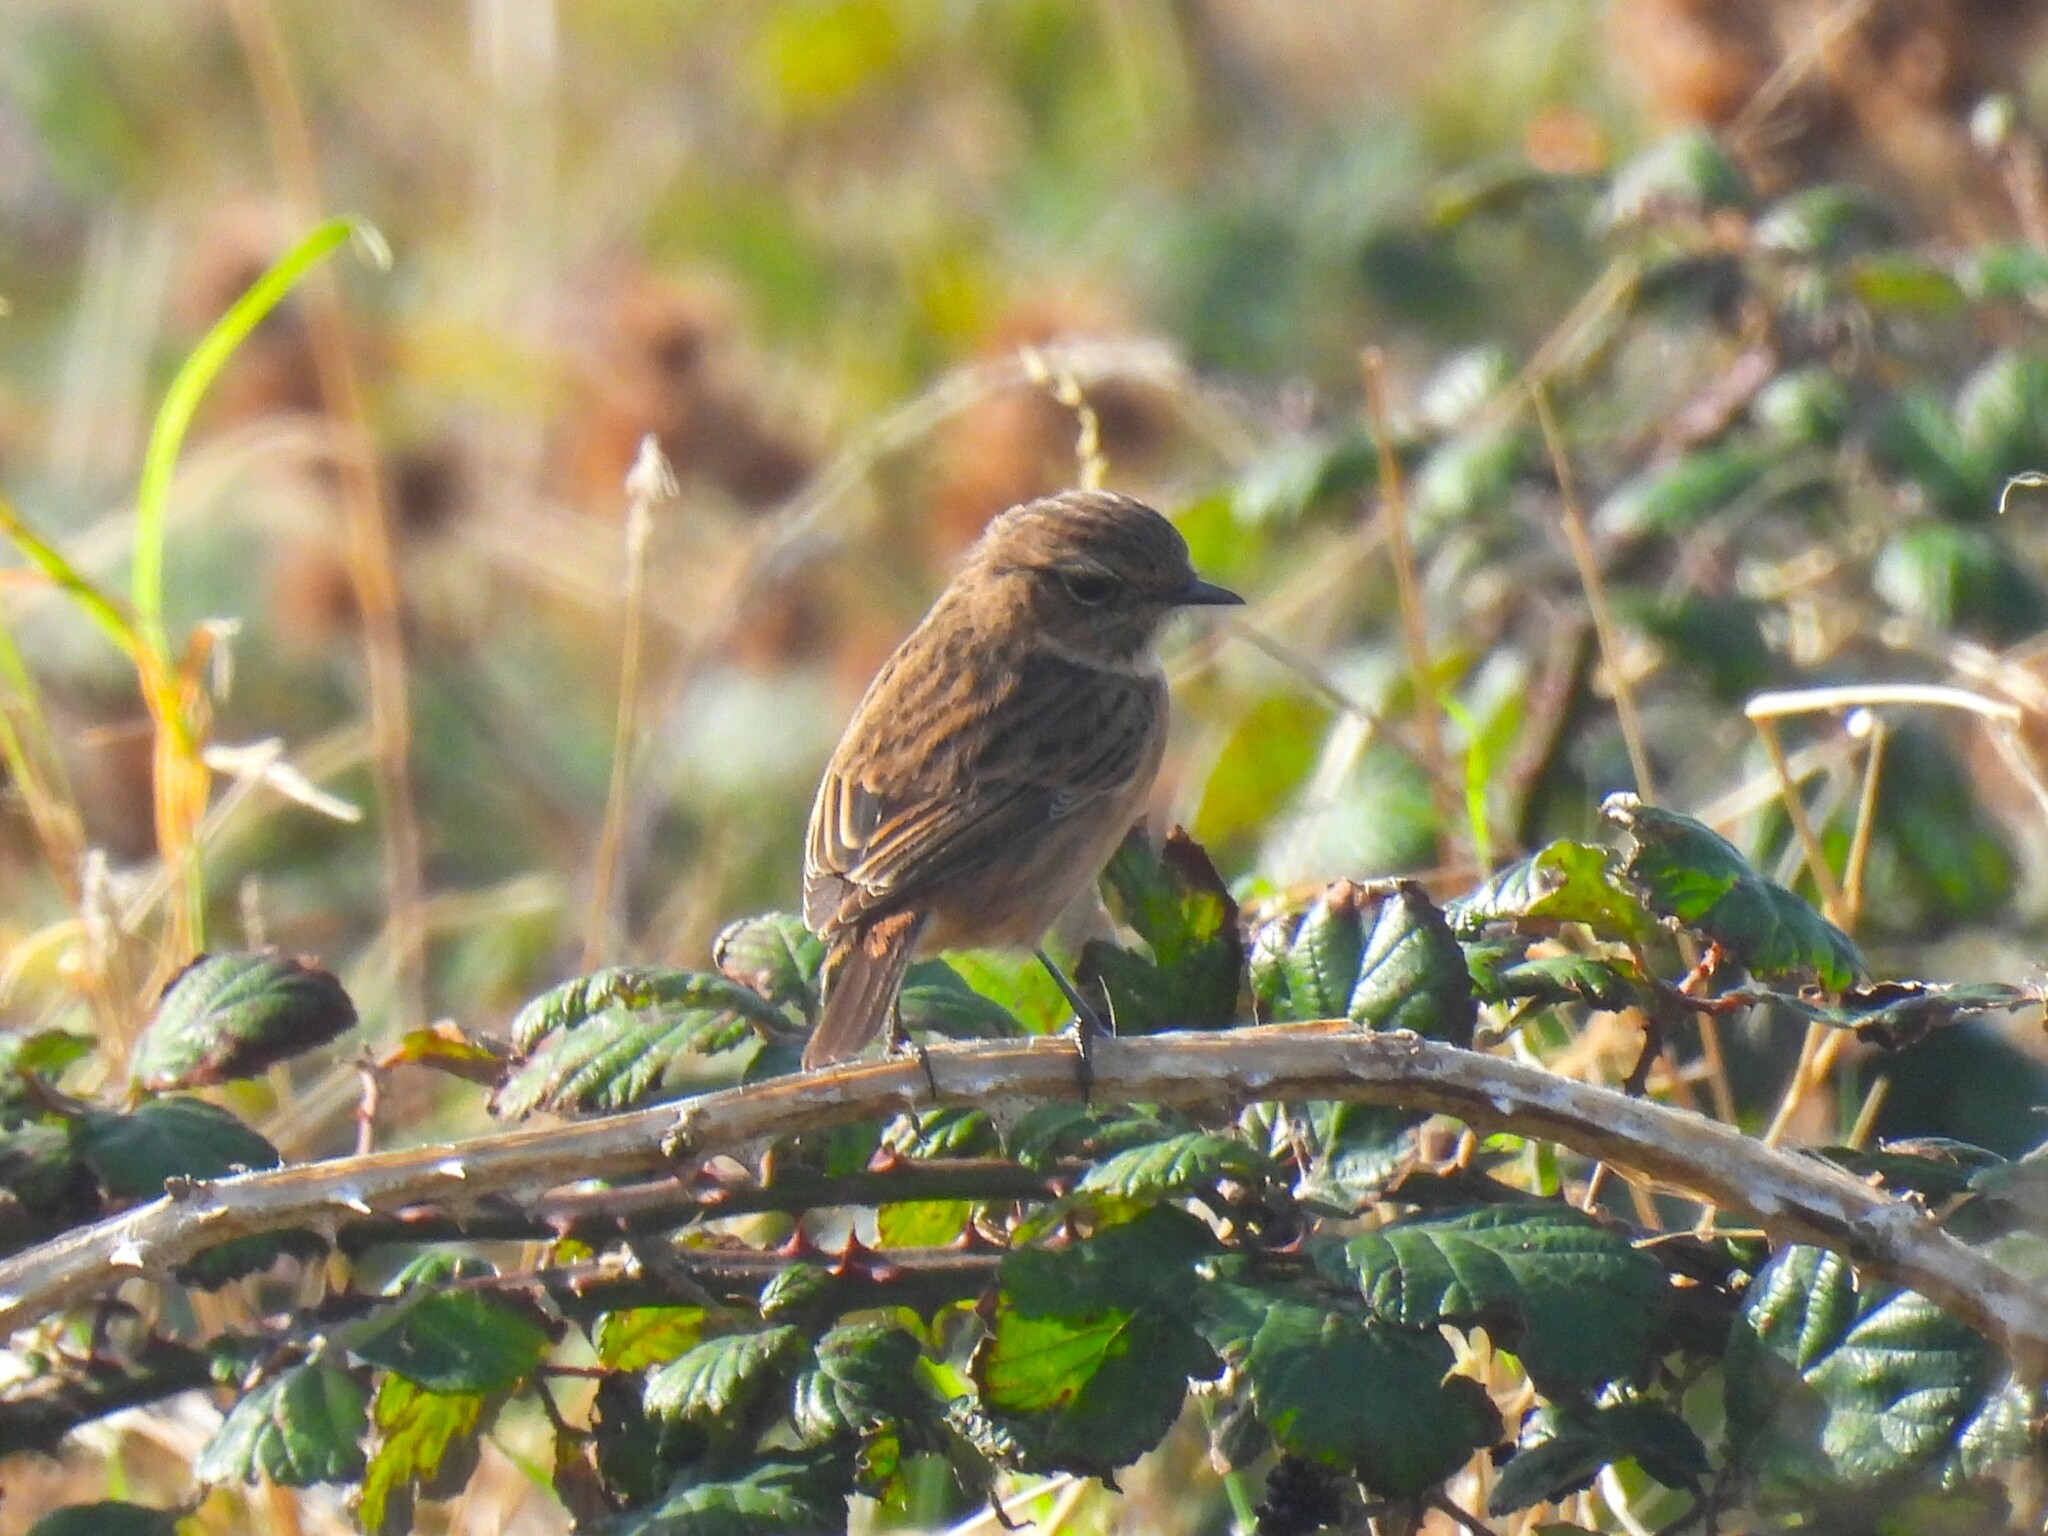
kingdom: Animalia
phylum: Chordata
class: Aves
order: Passeriformes
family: Muscicapidae
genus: Saxicola
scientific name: Saxicola rubicola
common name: European stonechat
